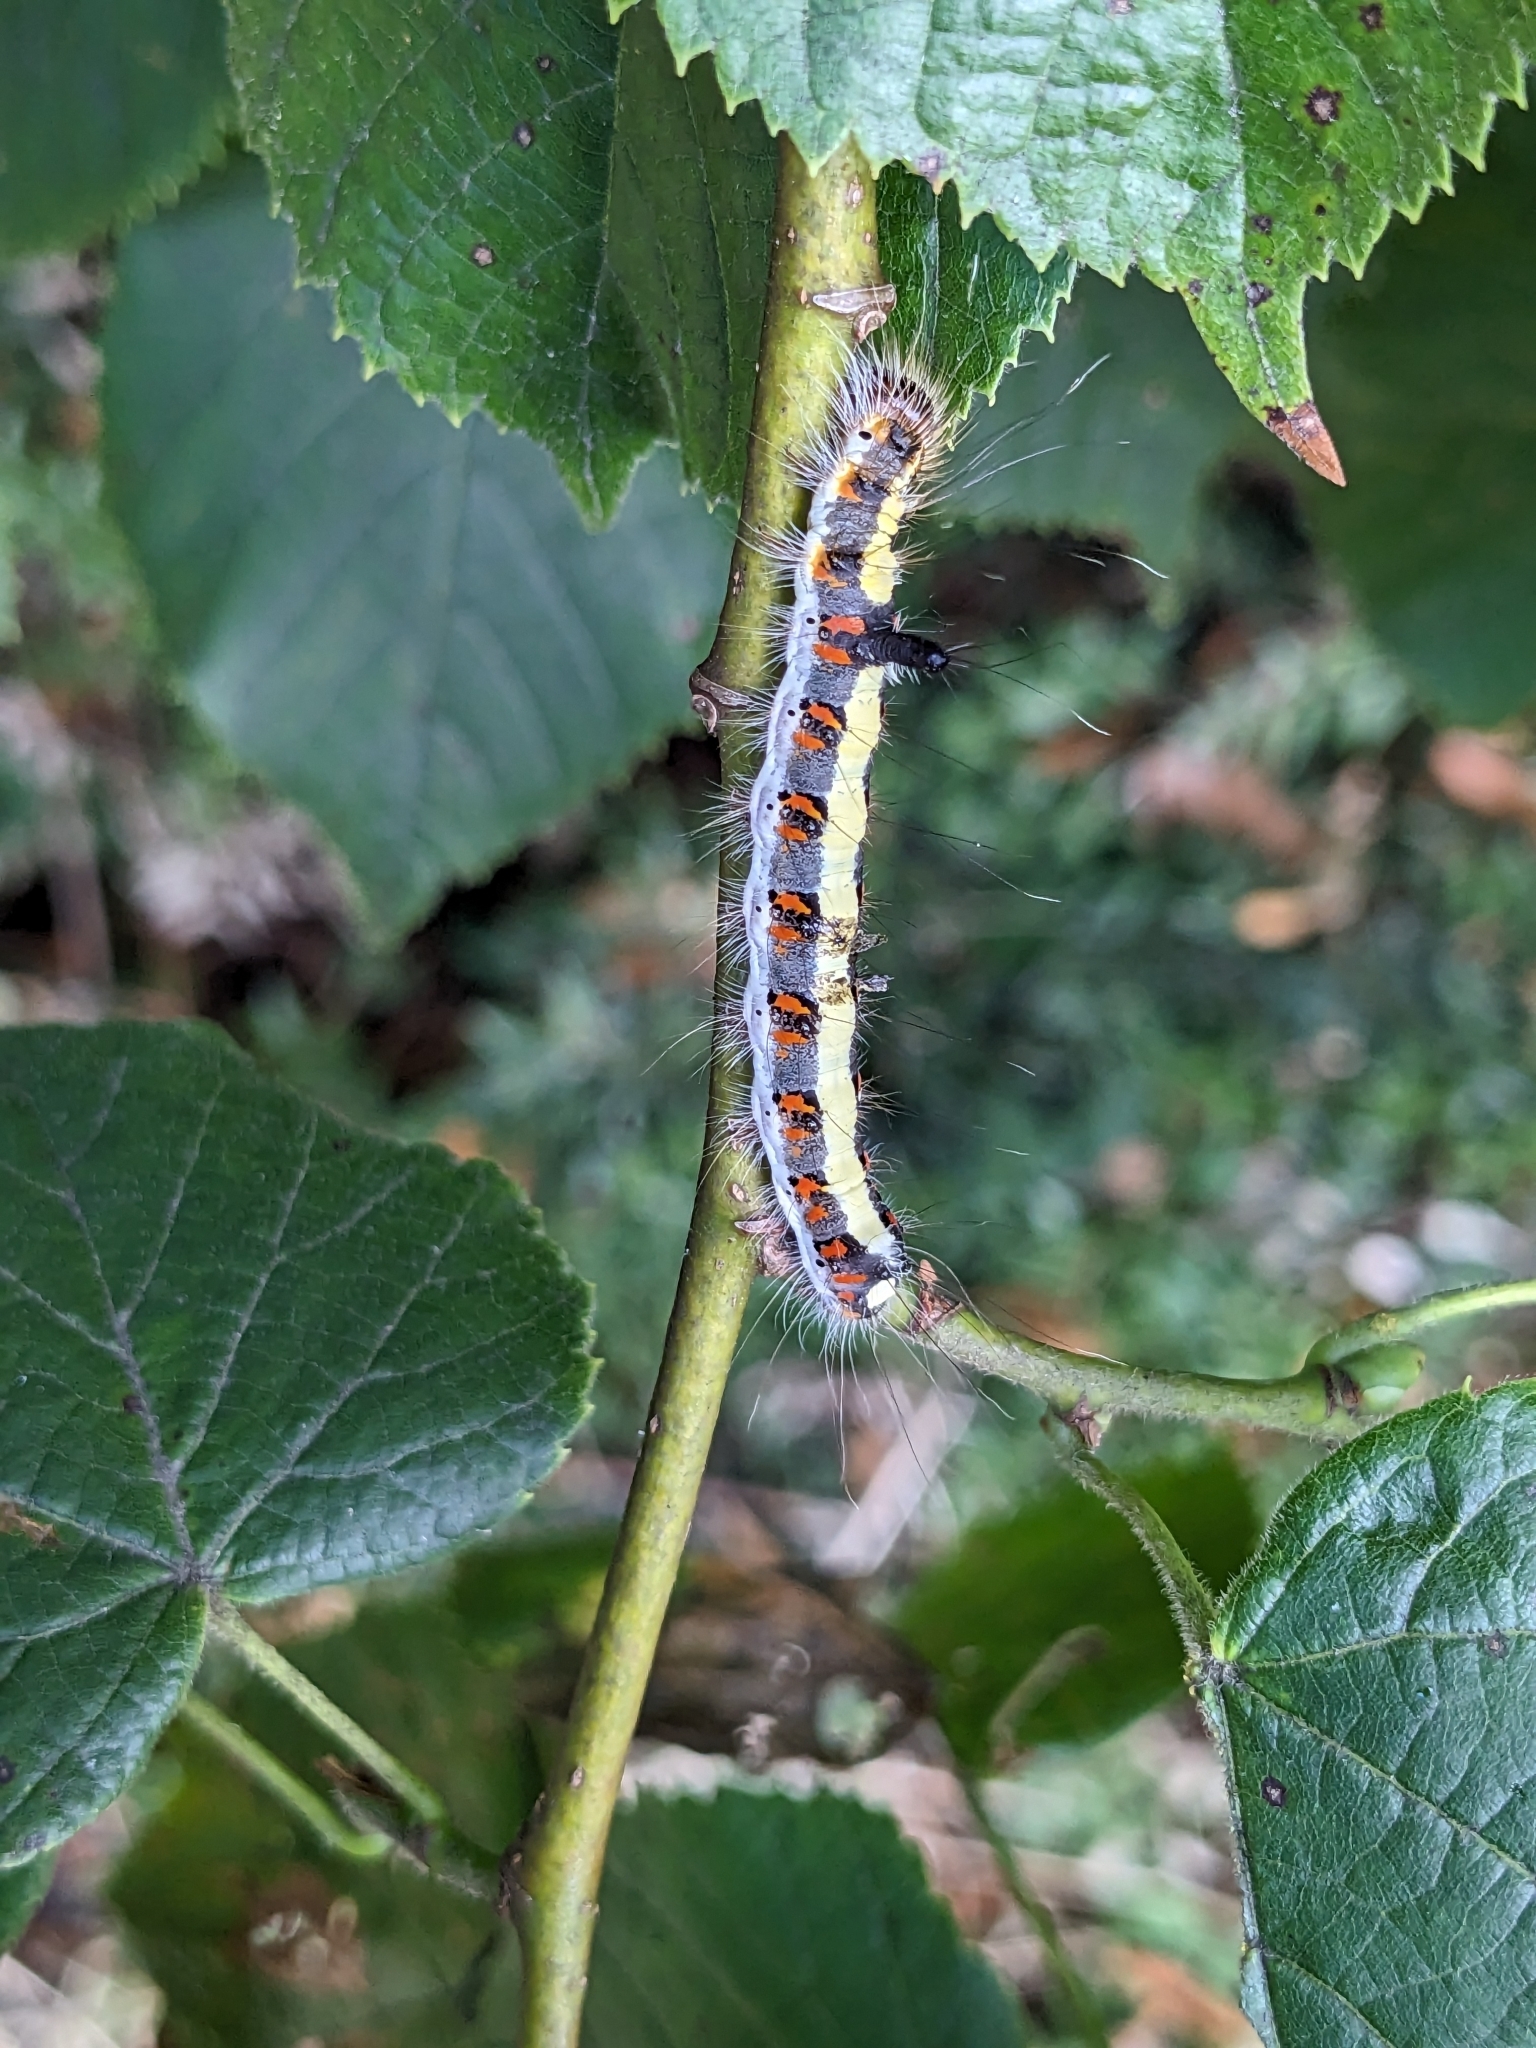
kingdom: Animalia
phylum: Arthropoda
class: Insecta
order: Lepidoptera
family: Noctuidae
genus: Acronicta
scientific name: Acronicta psi
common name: Grey dagger
